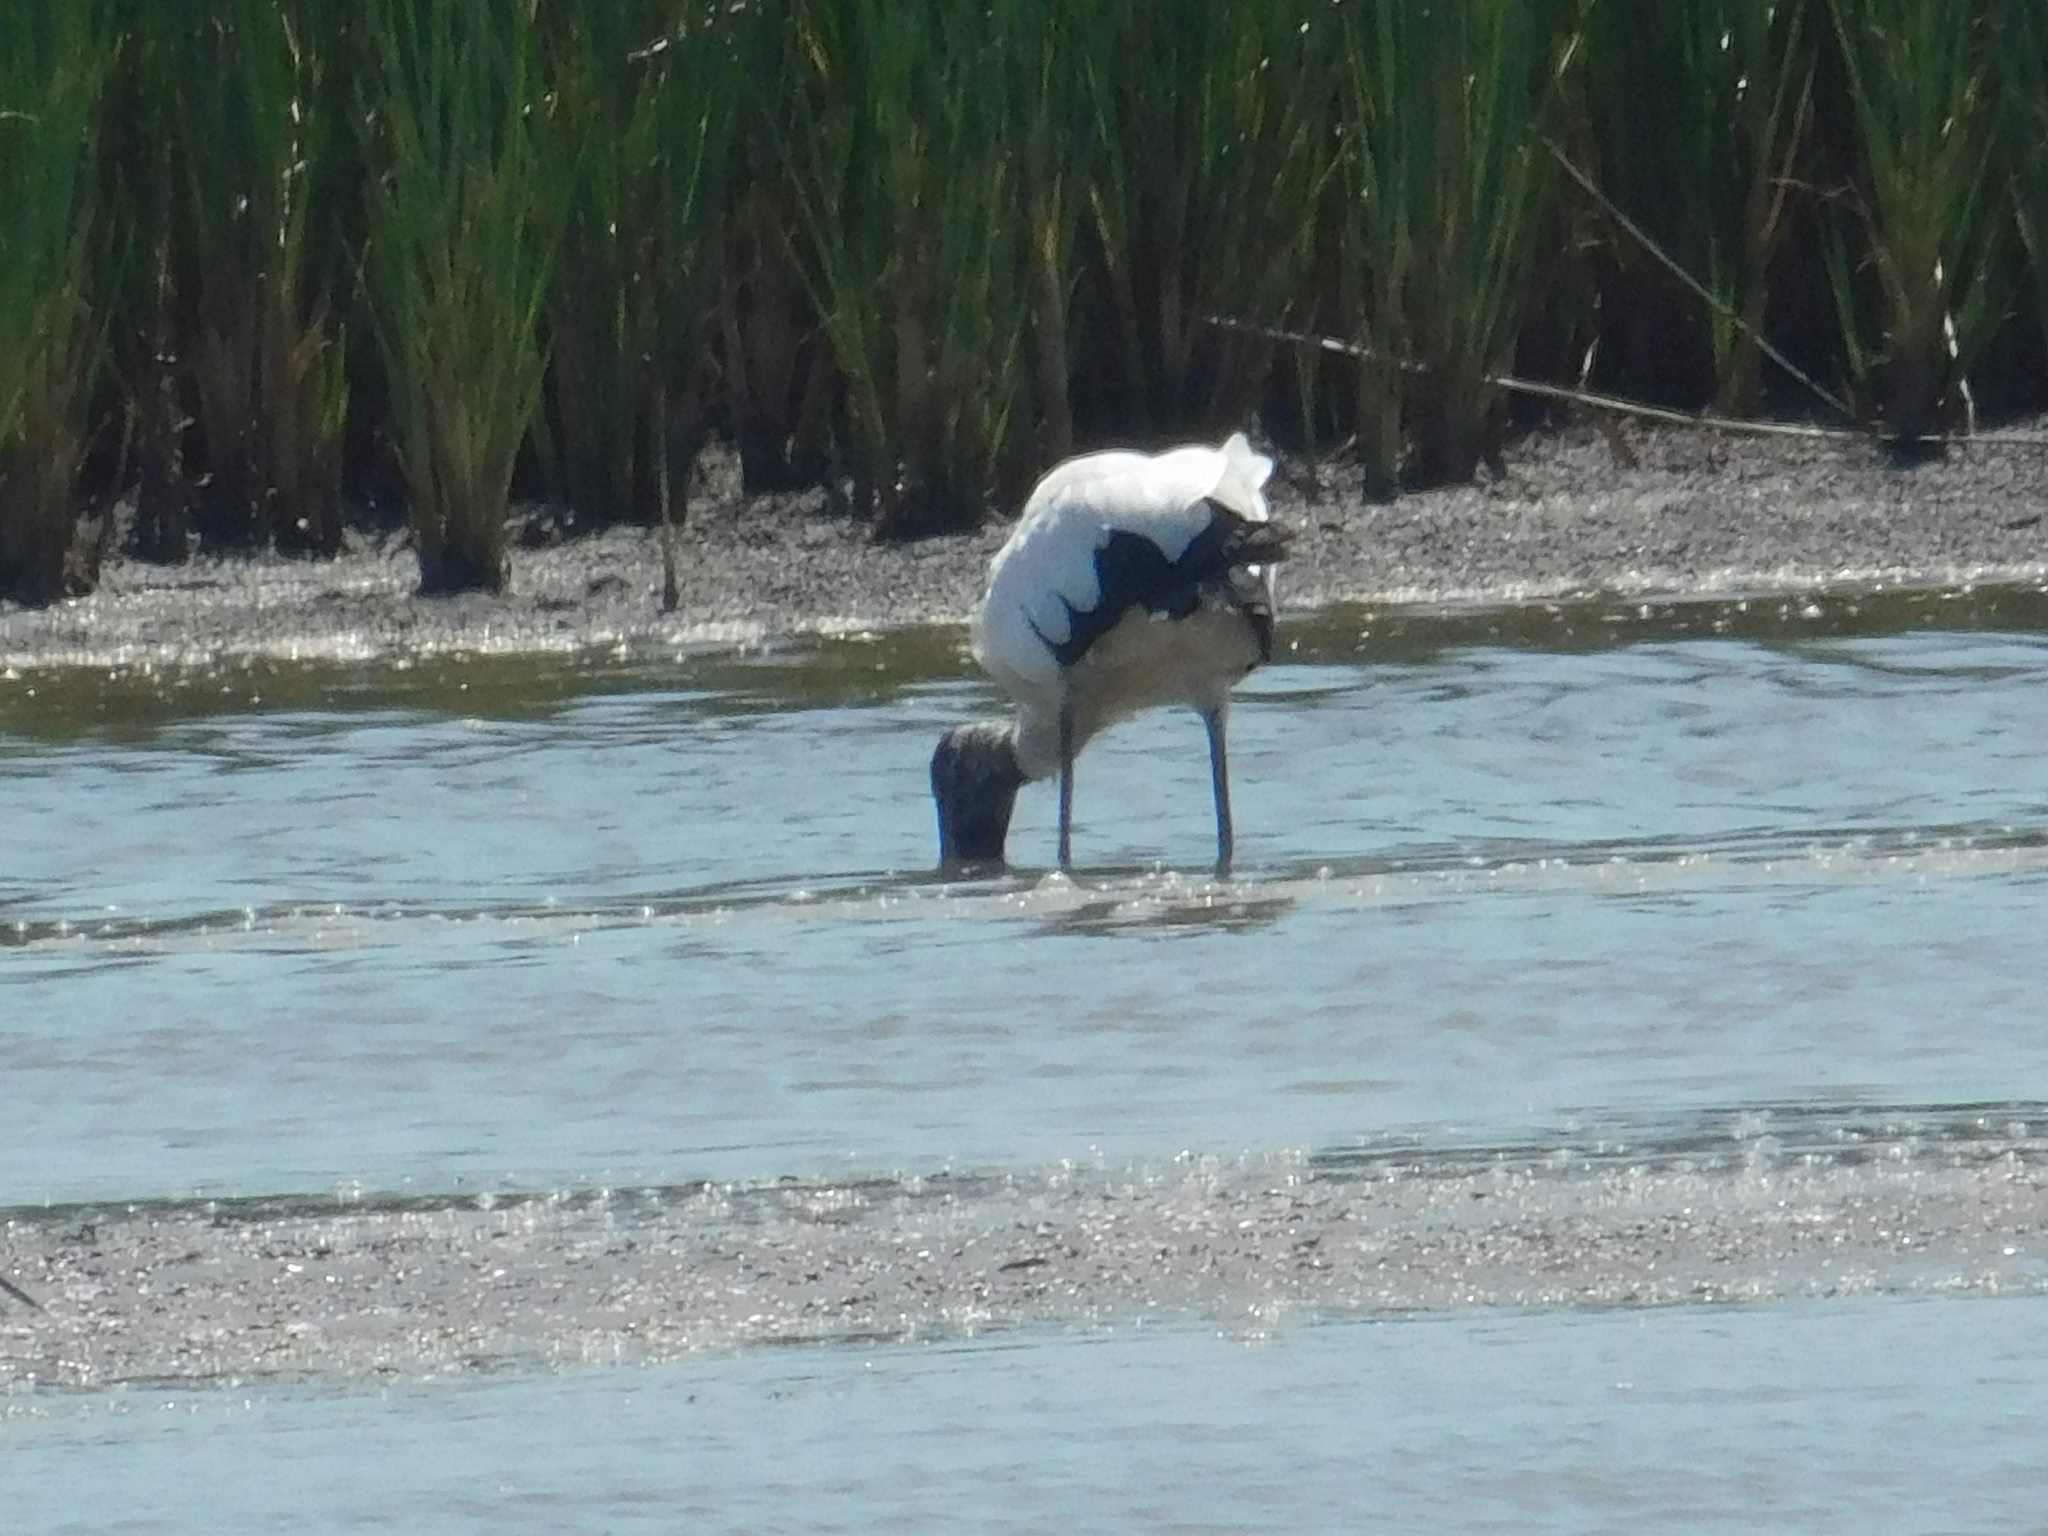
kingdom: Animalia
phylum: Chordata
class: Aves
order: Ciconiiformes
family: Ciconiidae
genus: Mycteria
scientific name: Mycteria americana
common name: Wood stork
